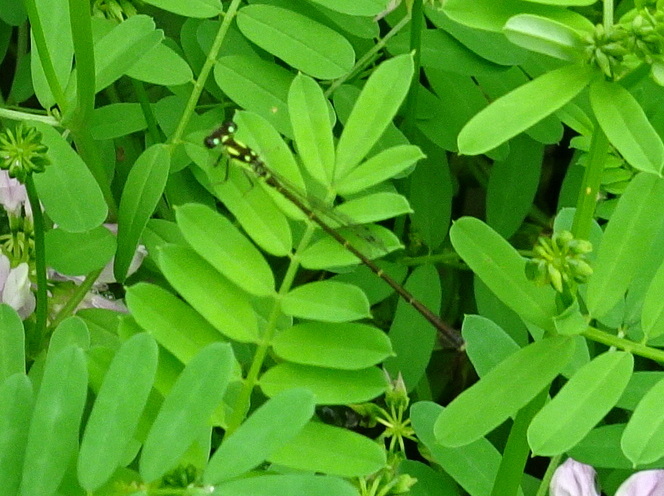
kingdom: Animalia
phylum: Arthropoda
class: Insecta
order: Odonata
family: Coenagrionidae
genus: Ischnura
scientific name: Ischnura posita
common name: Fragile forktail
